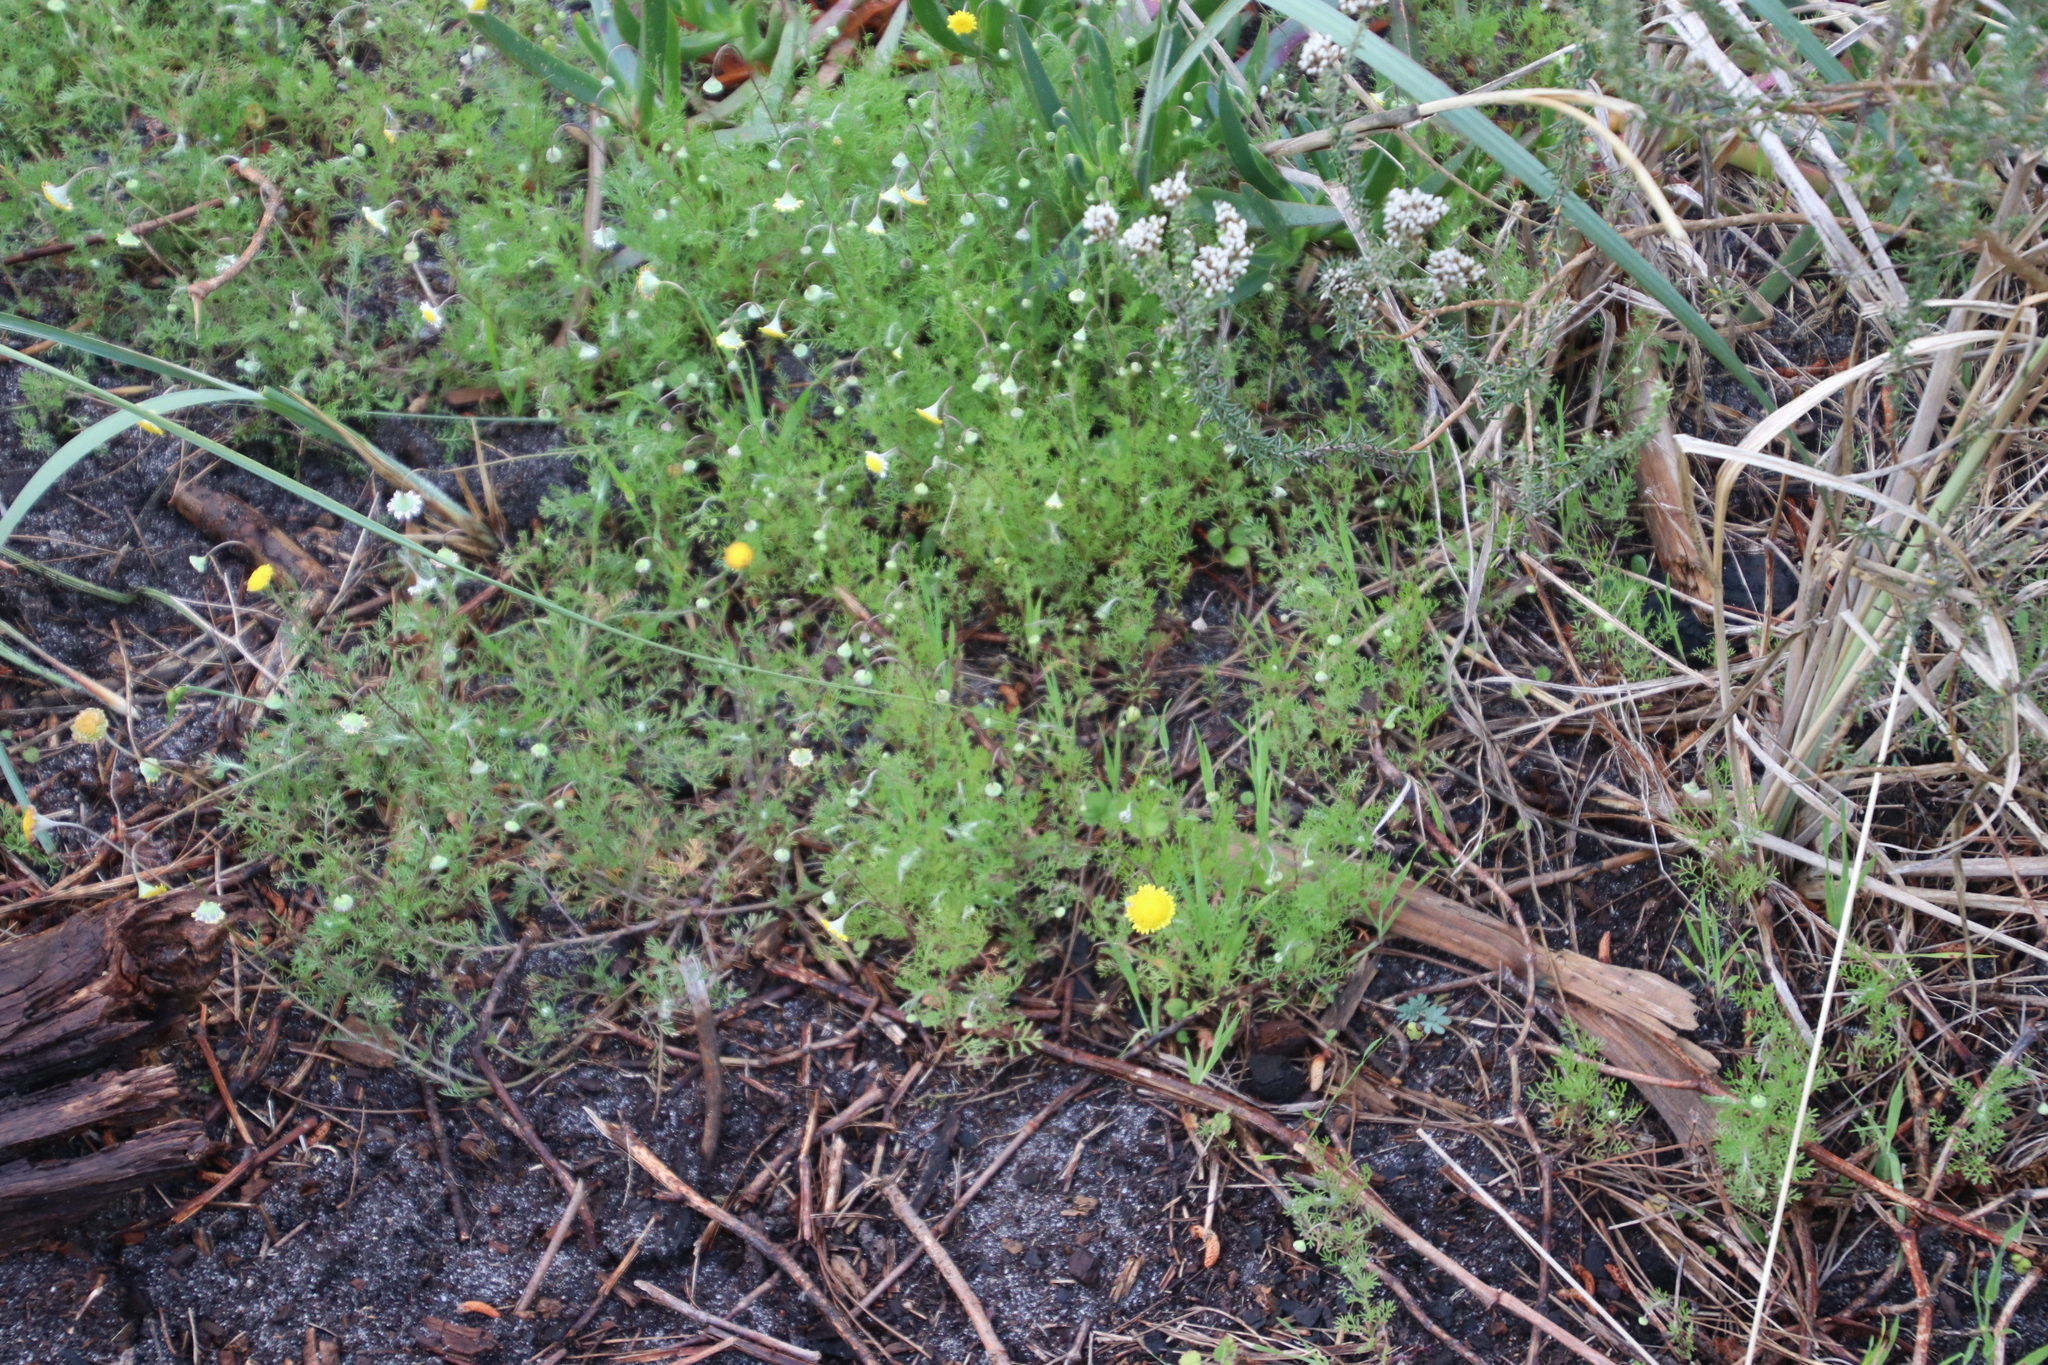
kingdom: Plantae
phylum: Tracheophyta
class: Magnoliopsida
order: Asterales
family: Asteraceae
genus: Cotula
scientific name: Cotula pruinosa
